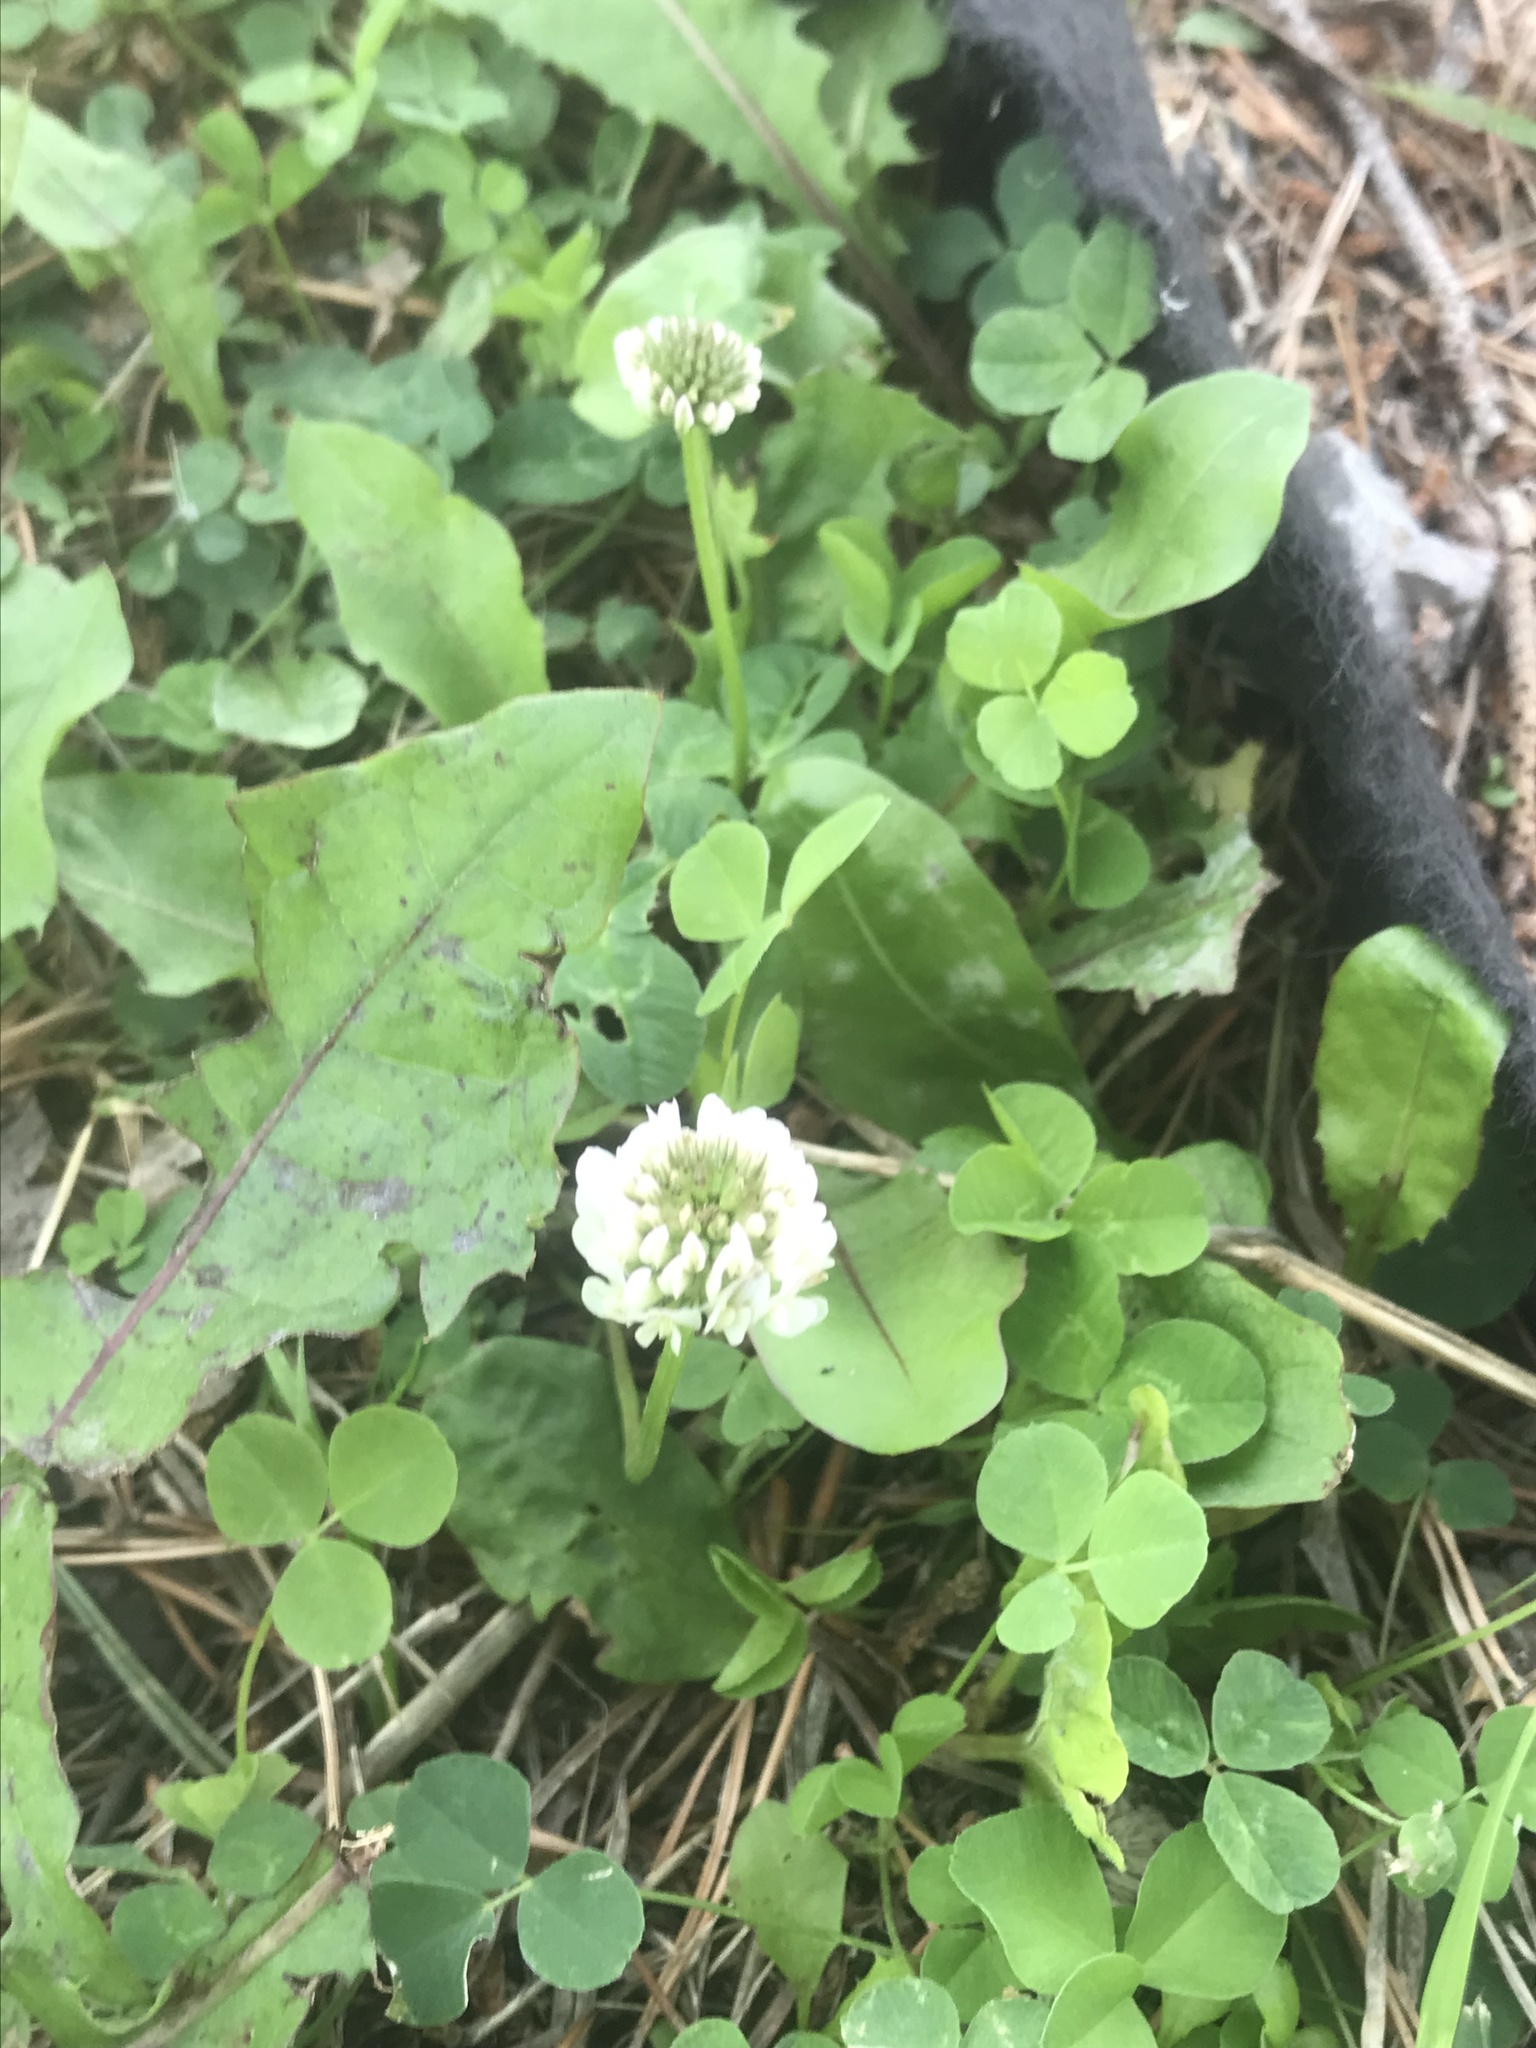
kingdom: Plantae
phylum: Tracheophyta
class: Magnoliopsida
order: Fabales
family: Fabaceae
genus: Trifolium
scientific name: Trifolium repens
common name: White clover
